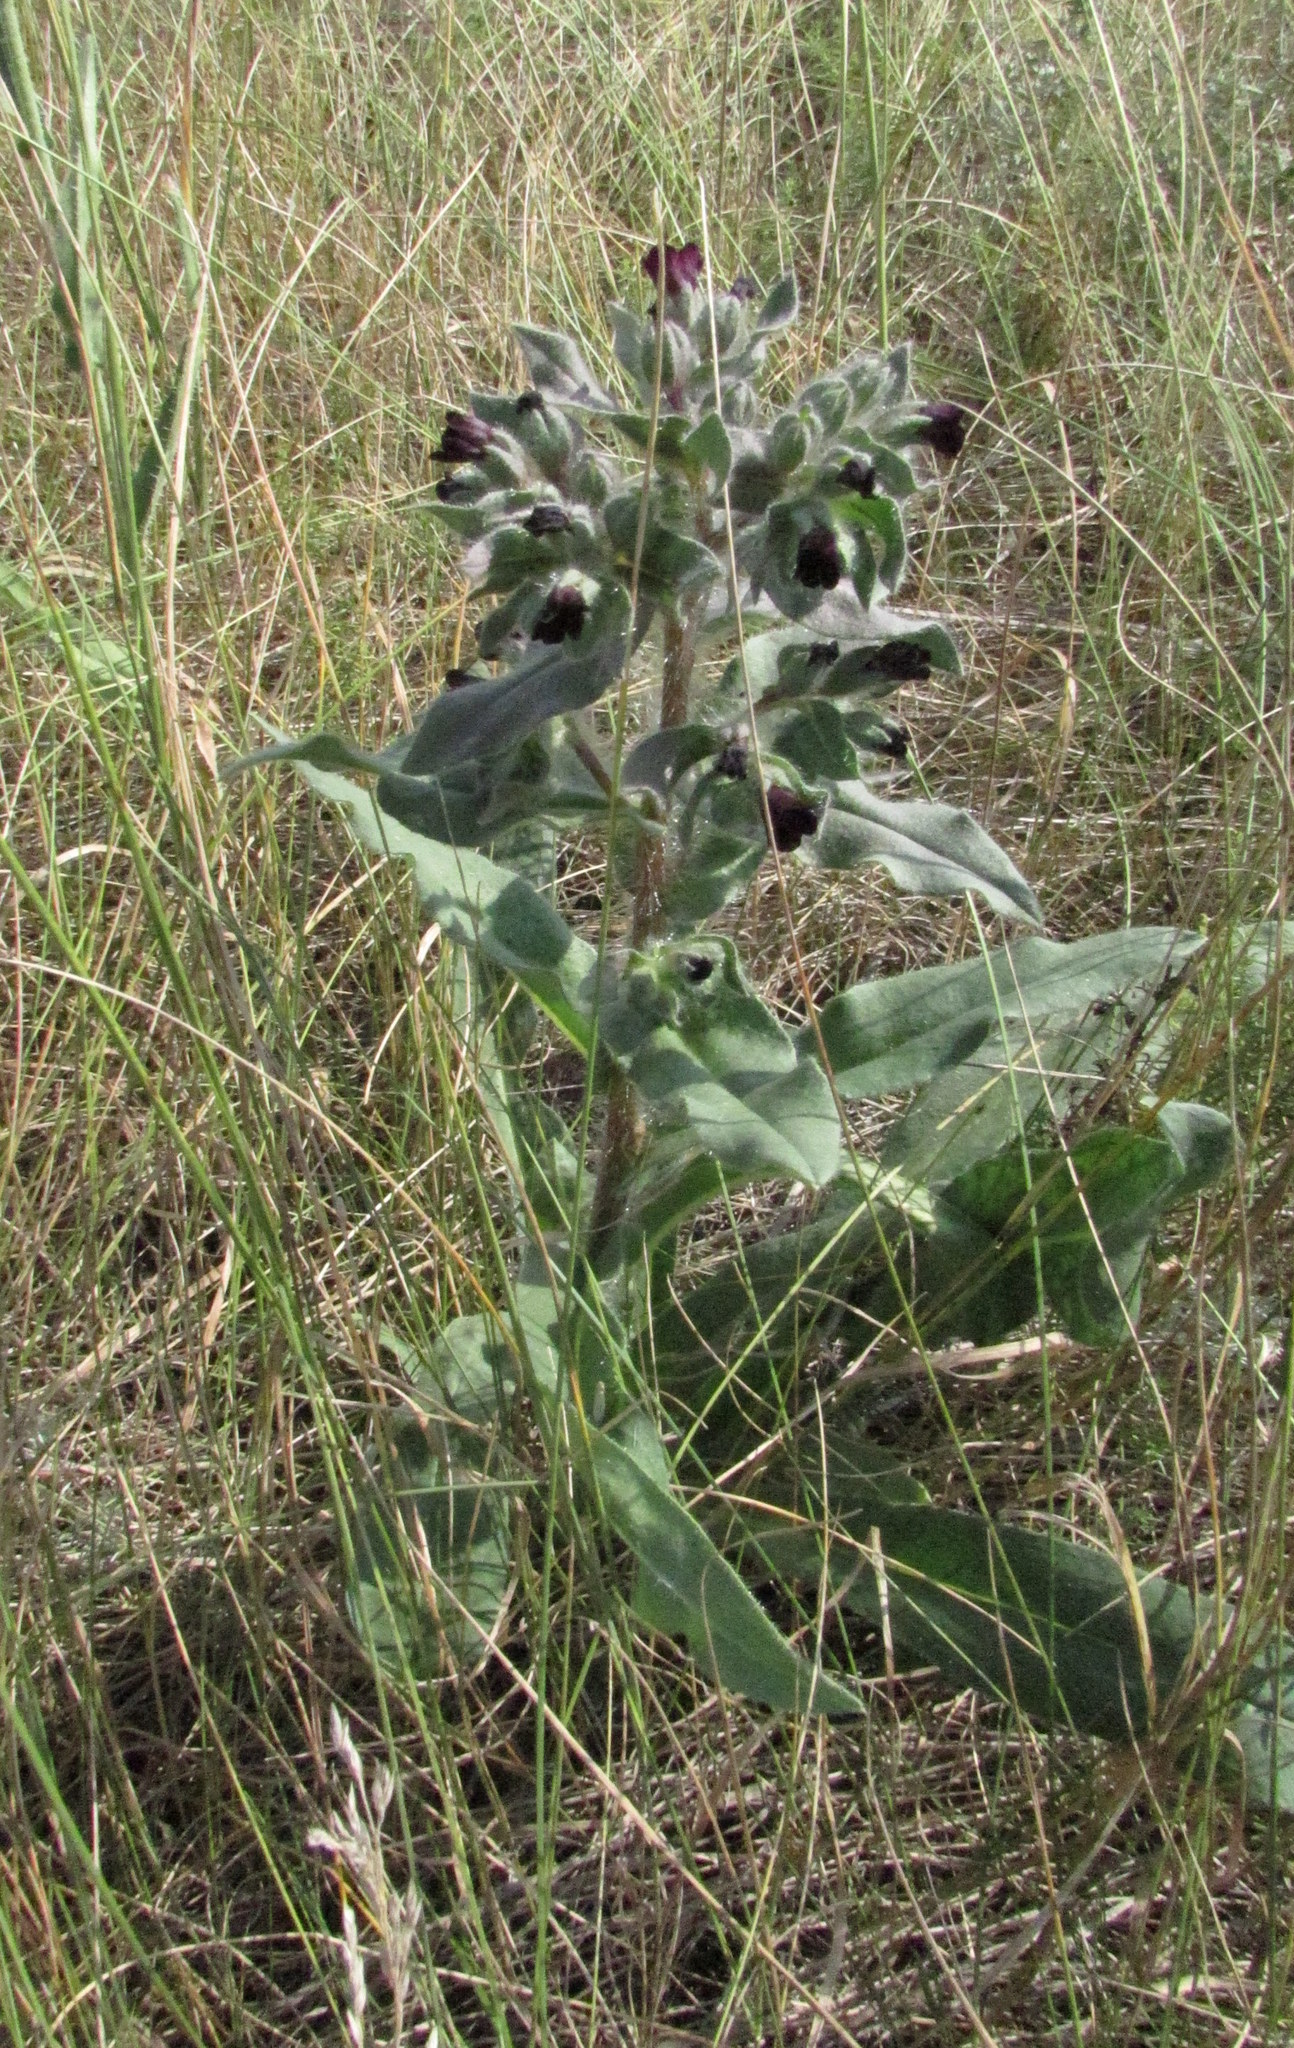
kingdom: Plantae
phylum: Tracheophyta
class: Magnoliopsida
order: Boraginales
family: Boraginaceae
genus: Nonea
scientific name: Nonea pulla
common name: Brown nonea
